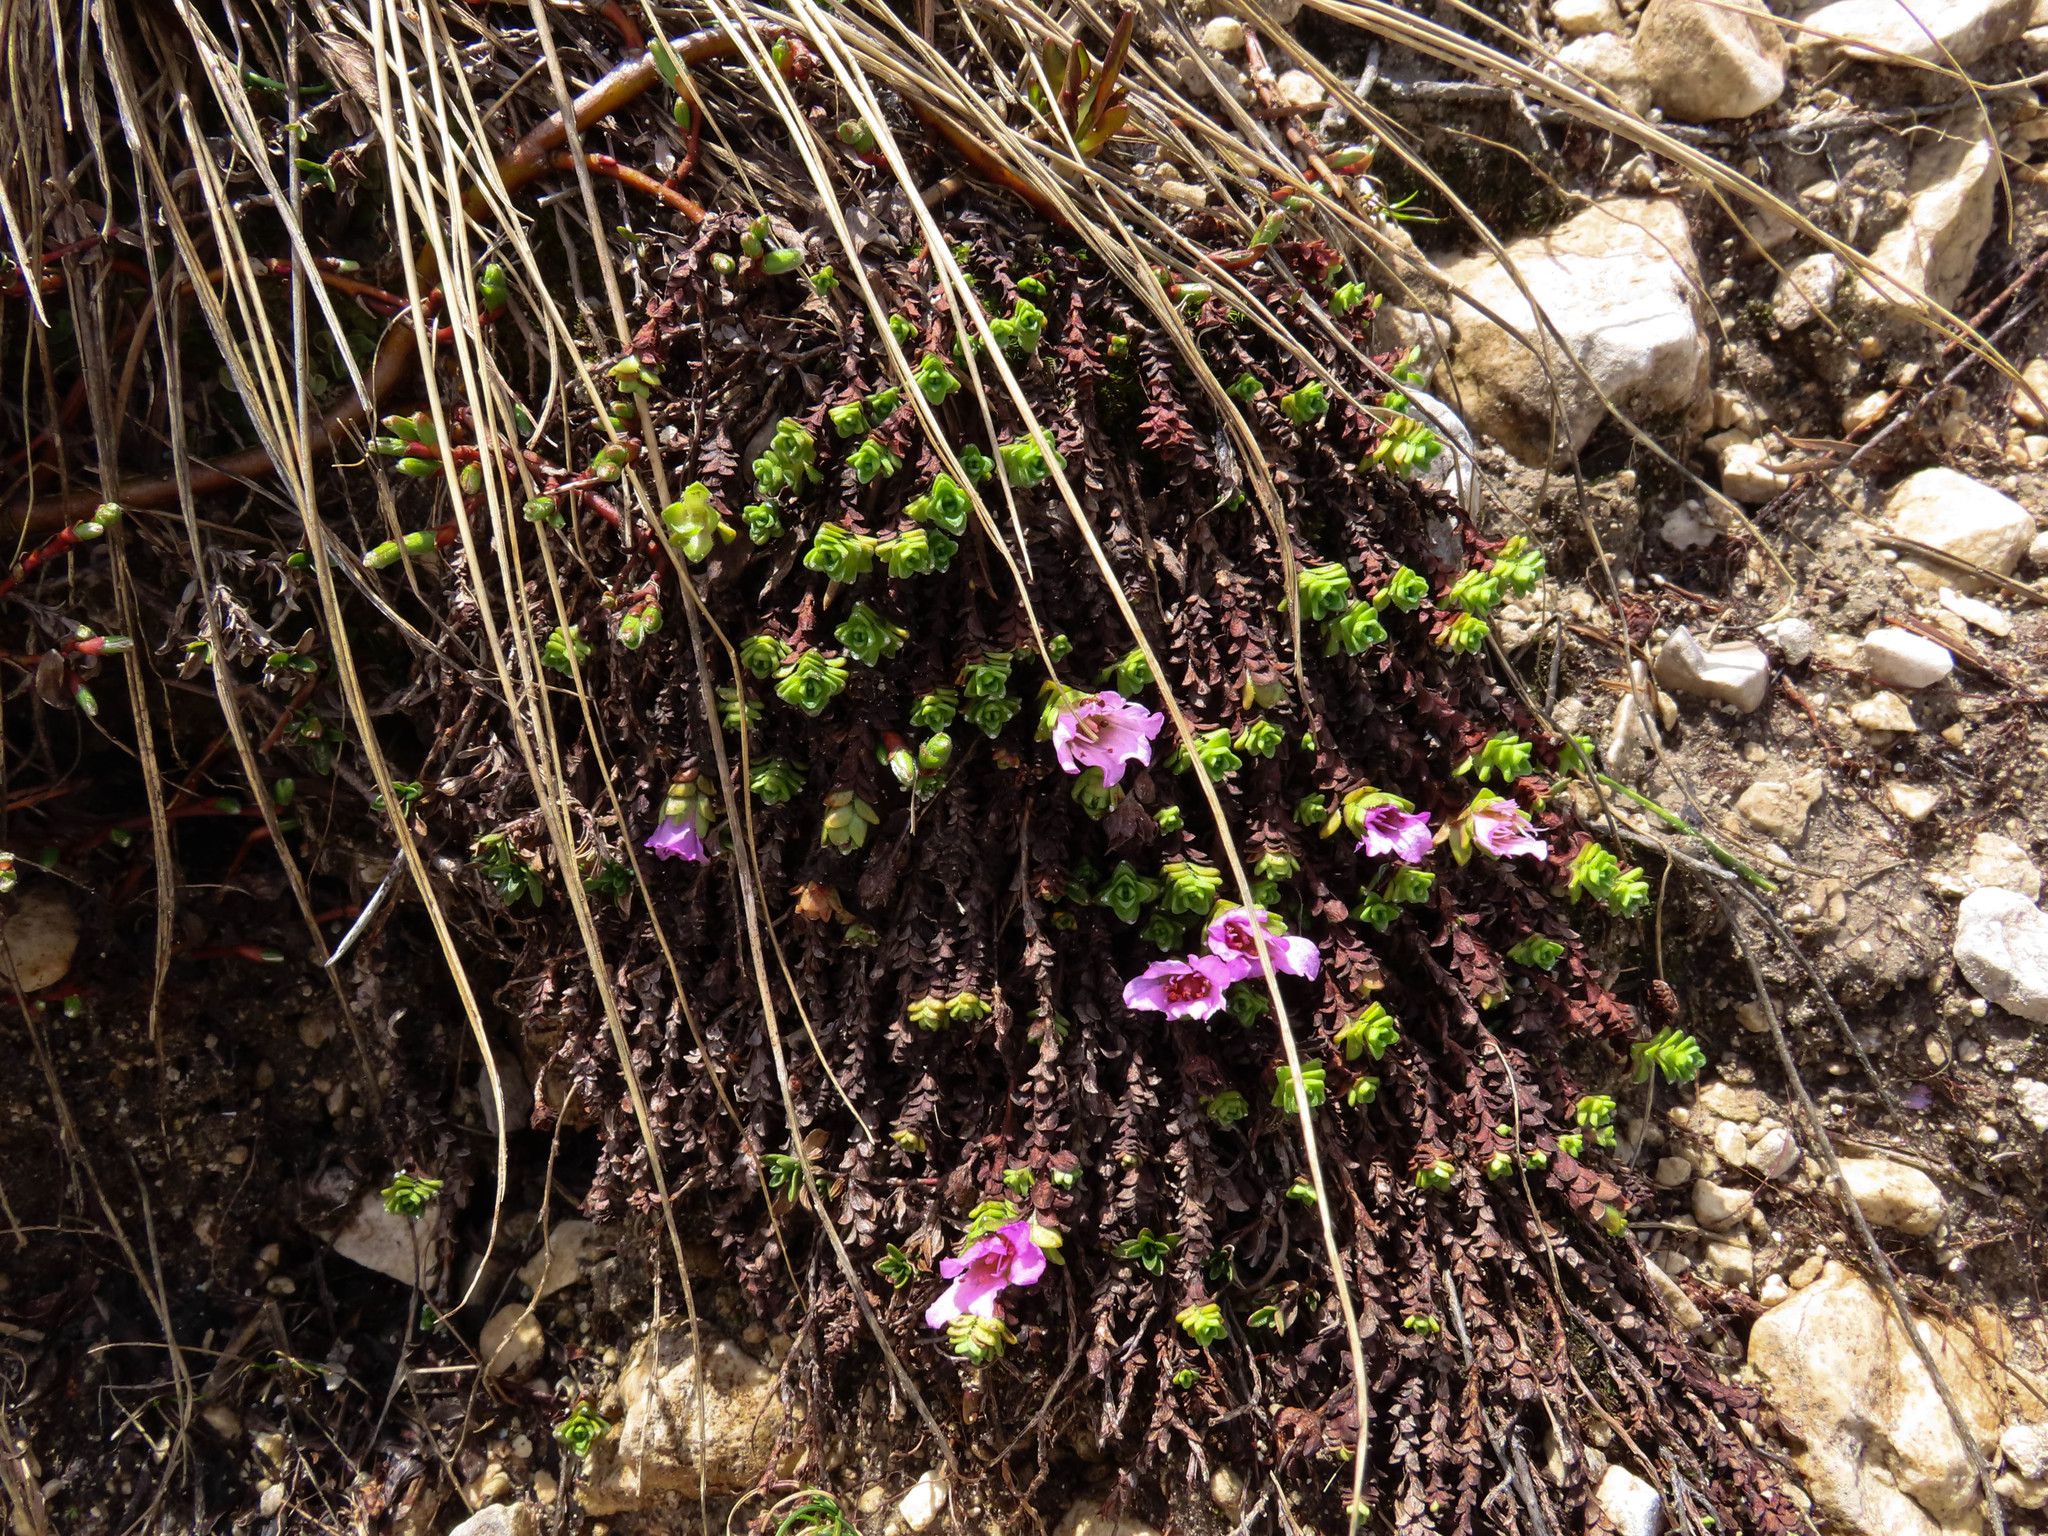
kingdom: Plantae
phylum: Tracheophyta
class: Magnoliopsida
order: Saxifragales
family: Saxifragaceae
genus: Saxifraga
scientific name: Saxifraga oppositifolia
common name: Purple saxifrage
